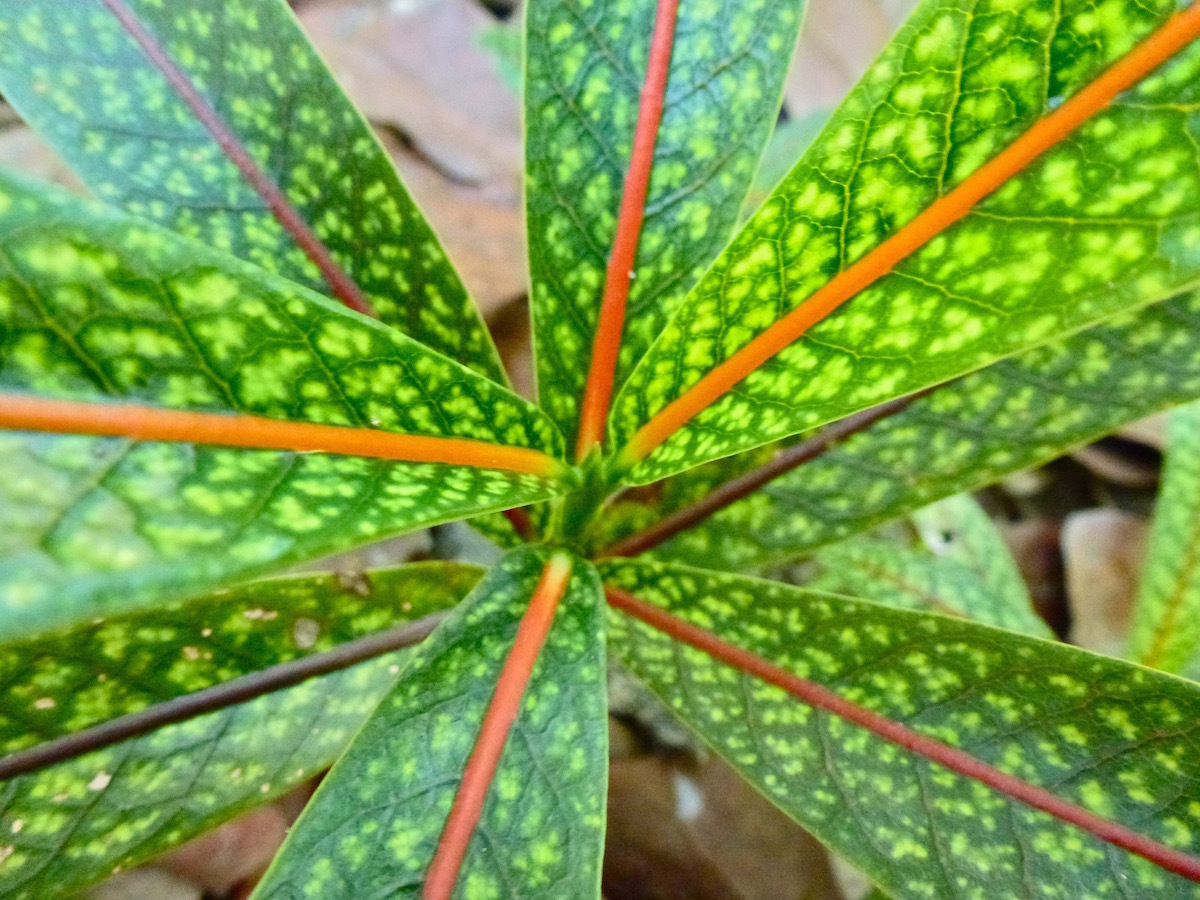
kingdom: Plantae
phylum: Tracheophyta
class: Magnoliopsida
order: Gentianales
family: Rubiaceae
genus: Coptosperma
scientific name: Coptosperma borbonicum
